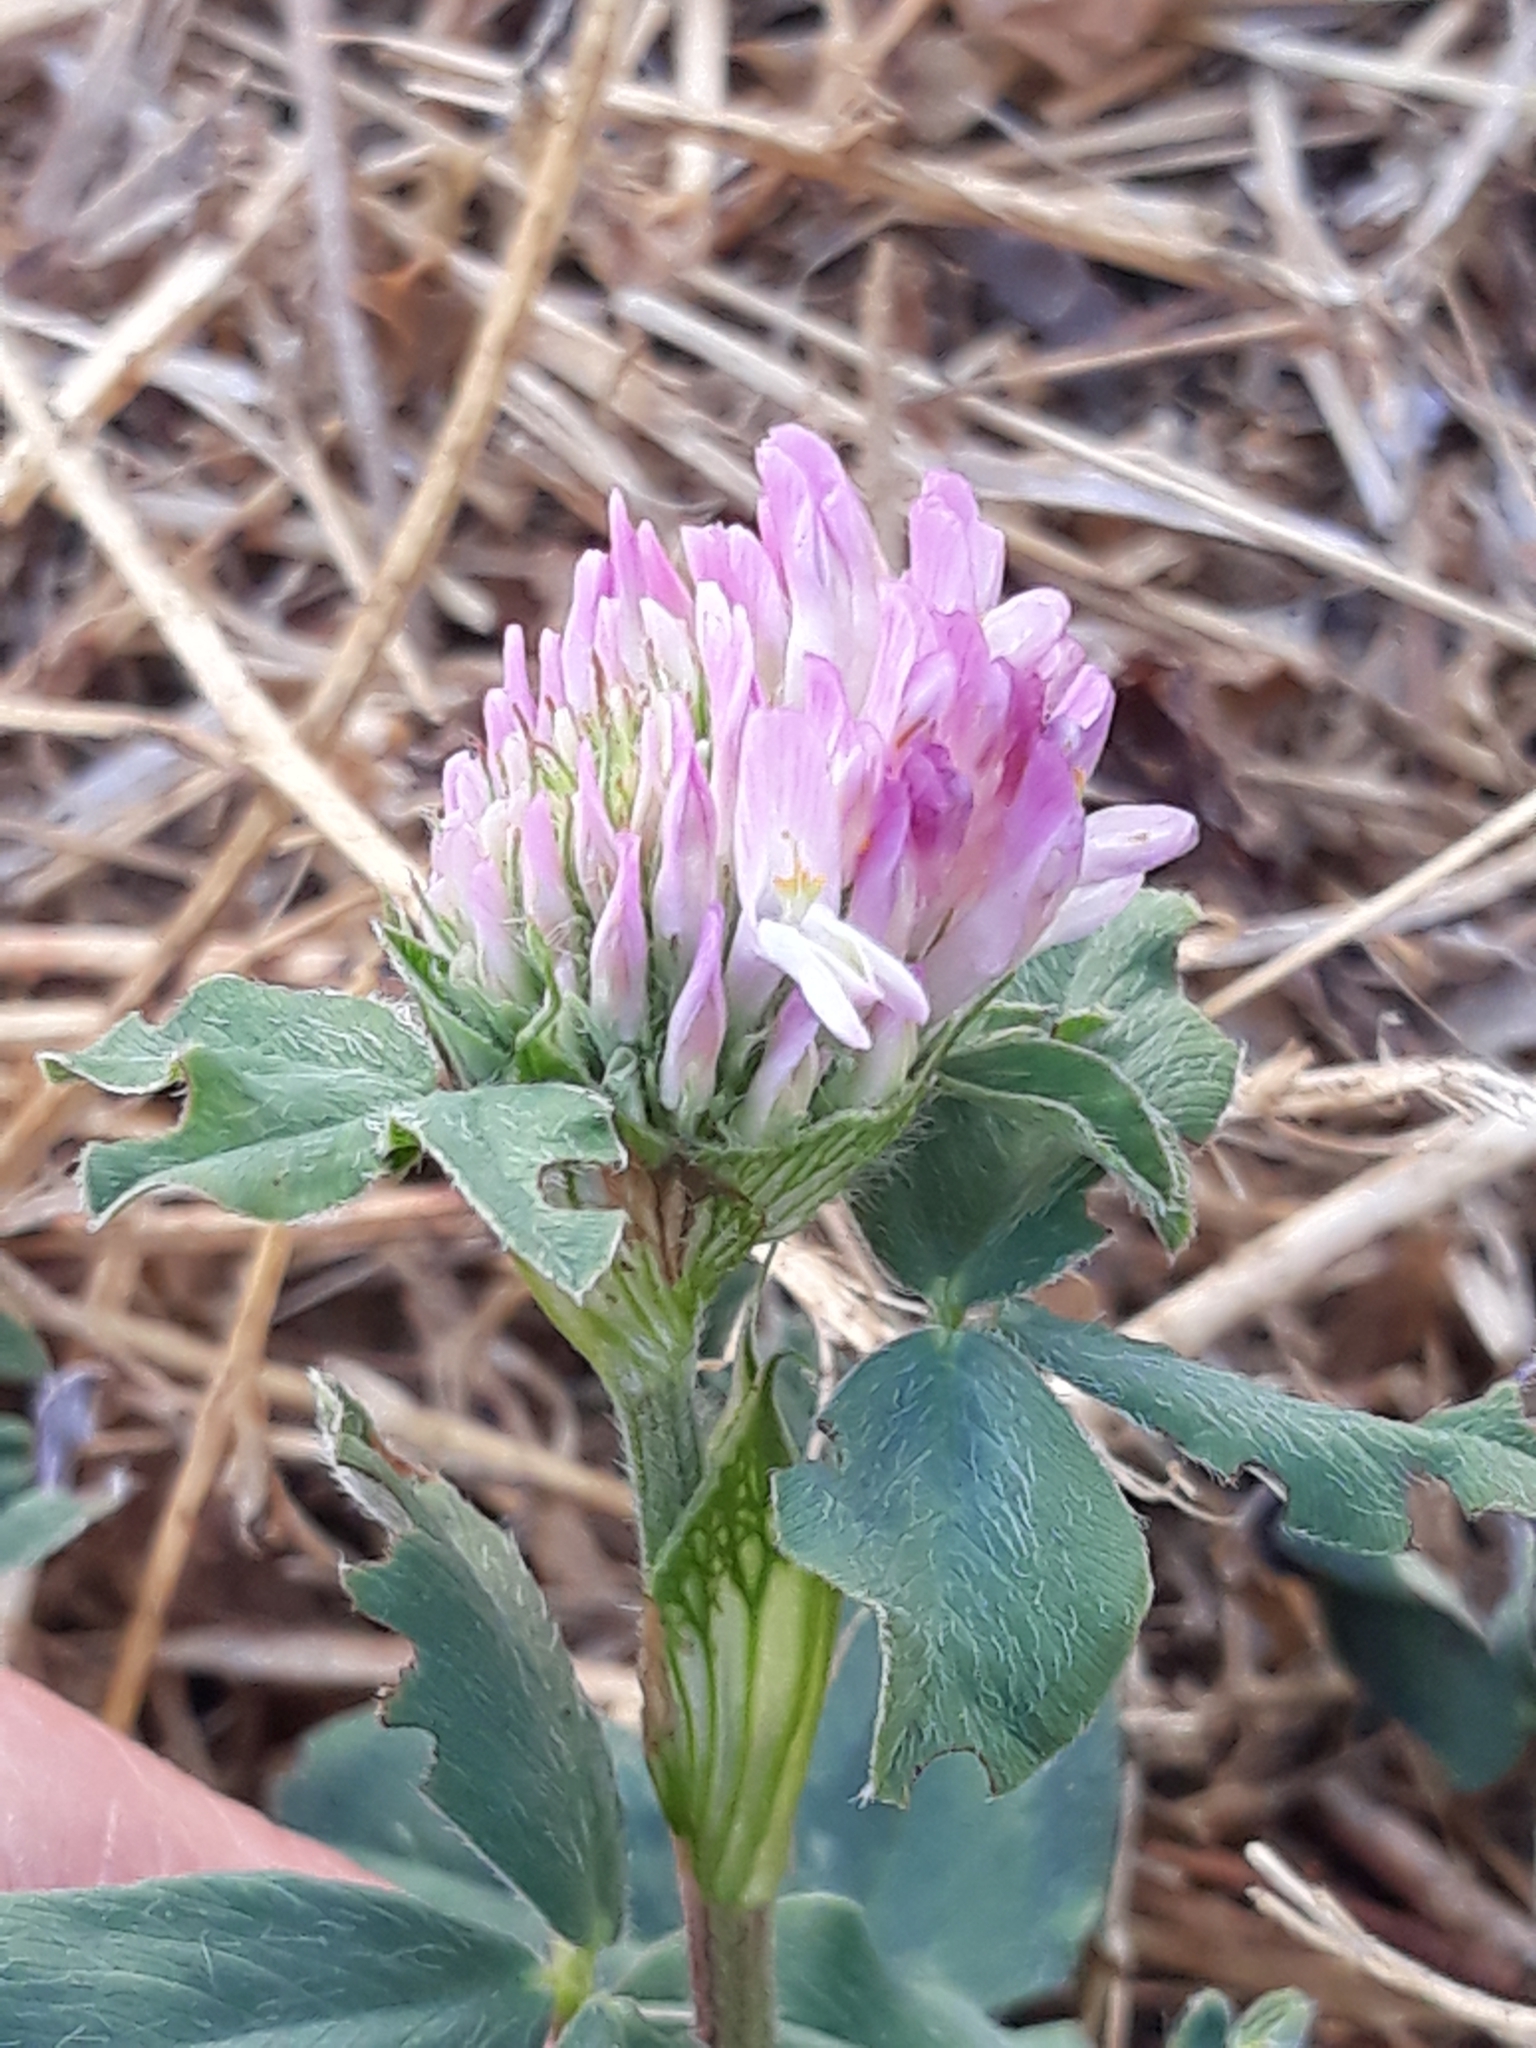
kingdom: Plantae
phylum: Tracheophyta
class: Magnoliopsida
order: Fabales
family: Fabaceae
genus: Trifolium
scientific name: Trifolium pratense
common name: Red clover
